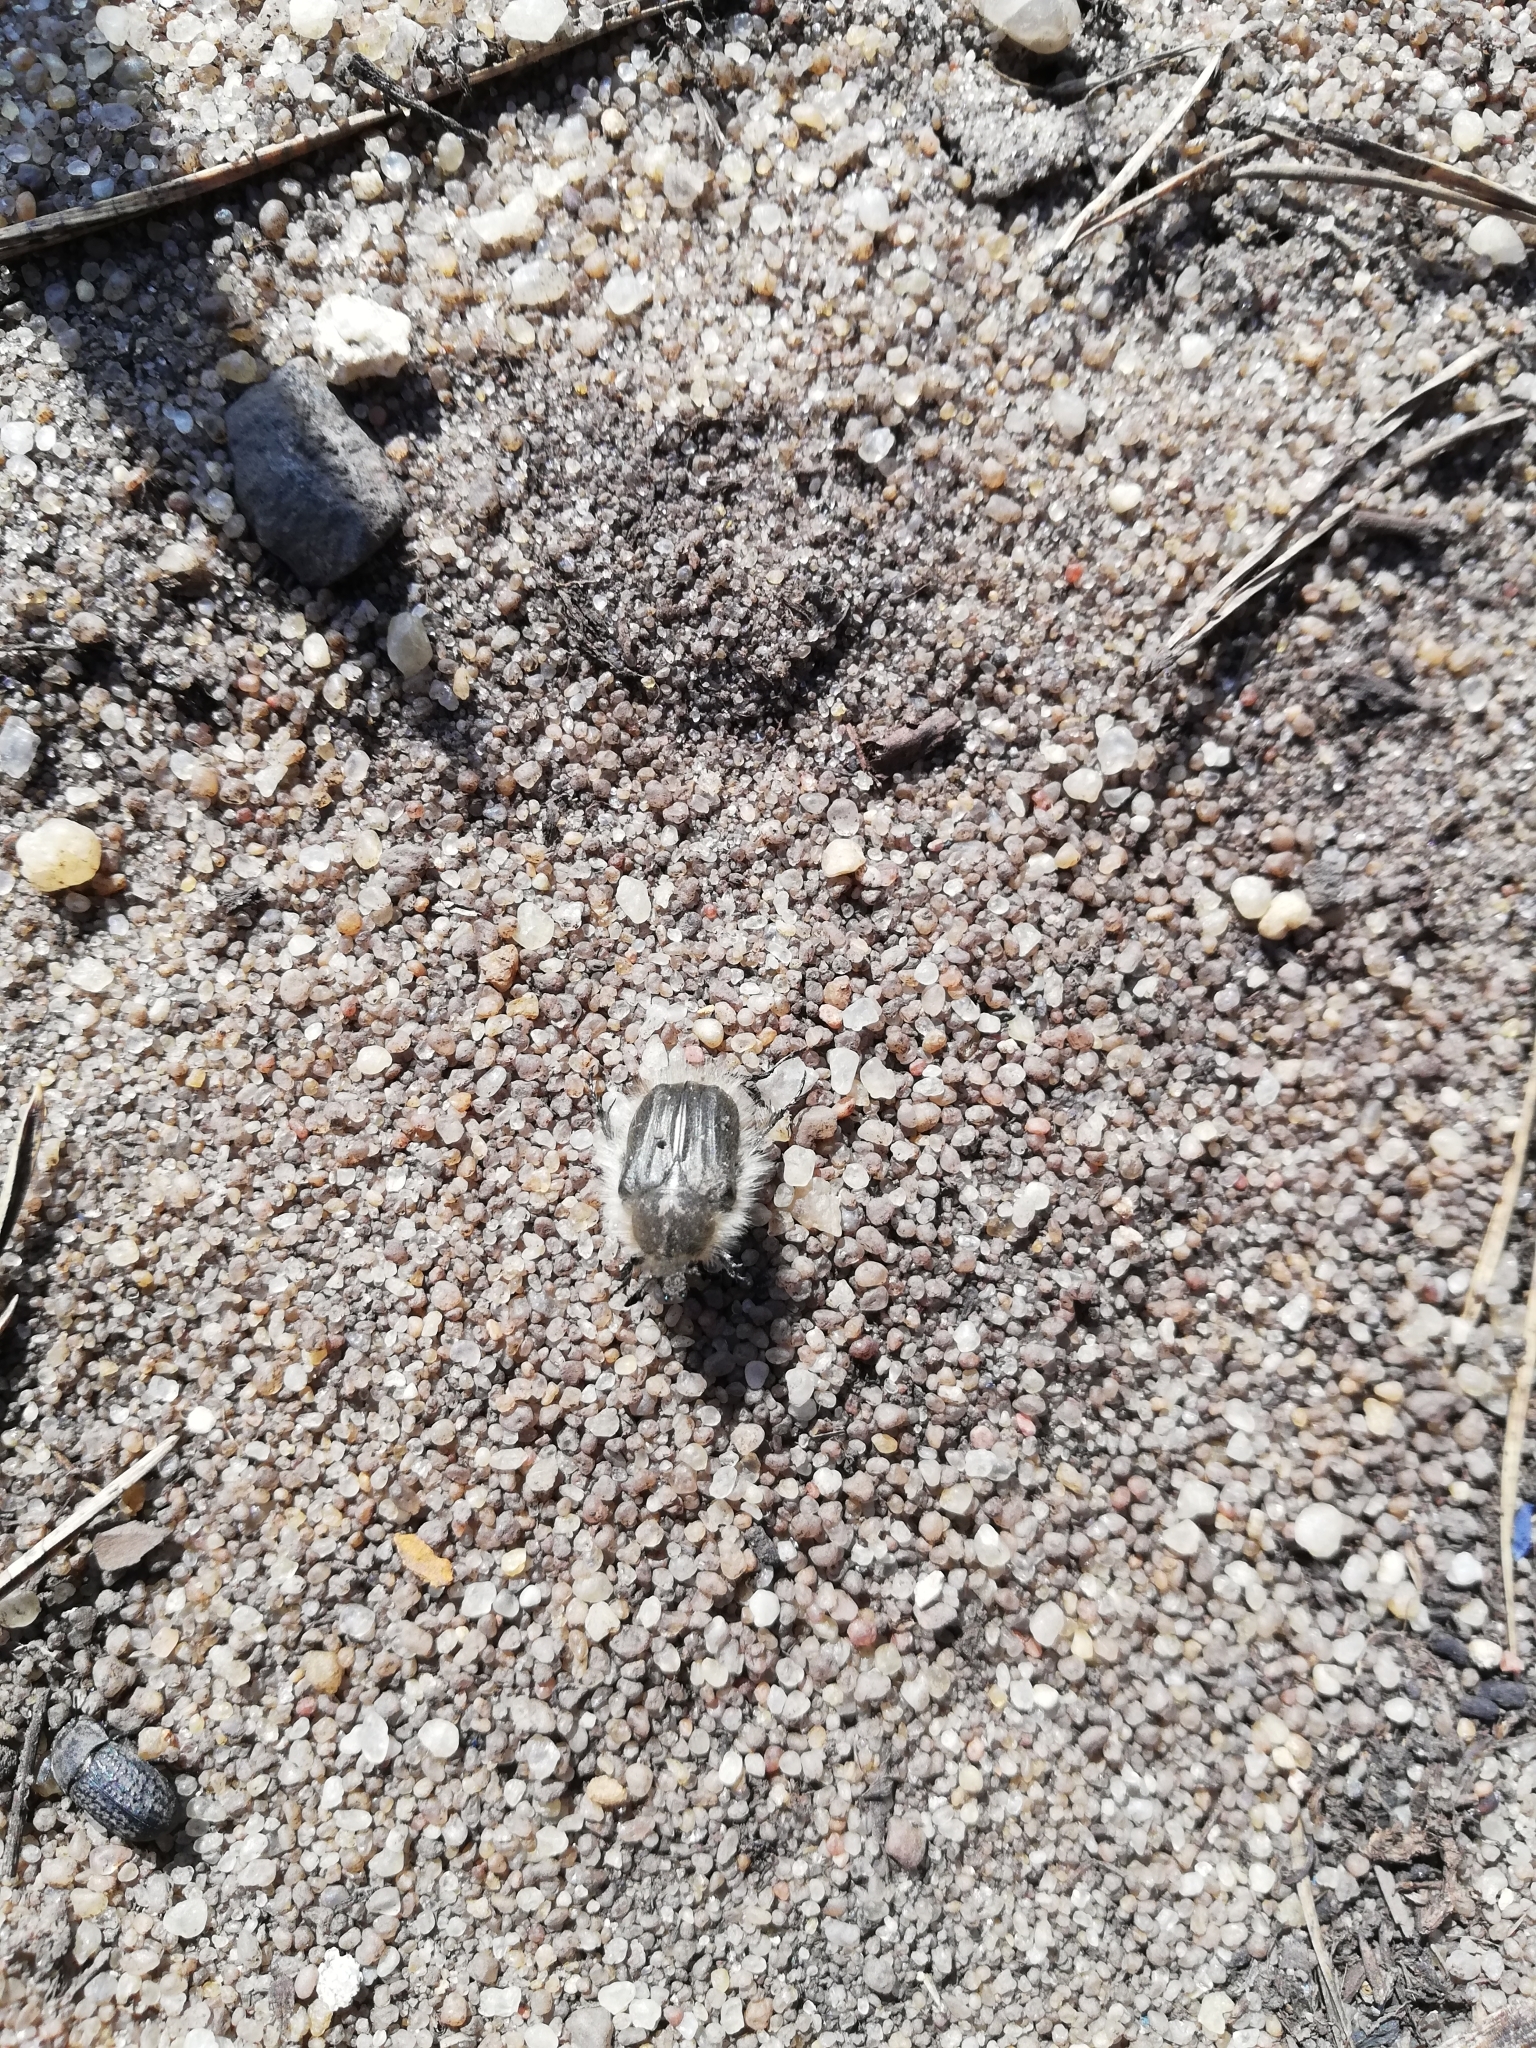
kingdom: Animalia
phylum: Arthropoda
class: Insecta
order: Coleoptera
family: Scarabaeidae
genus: Tropinota
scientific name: Tropinota hirta
